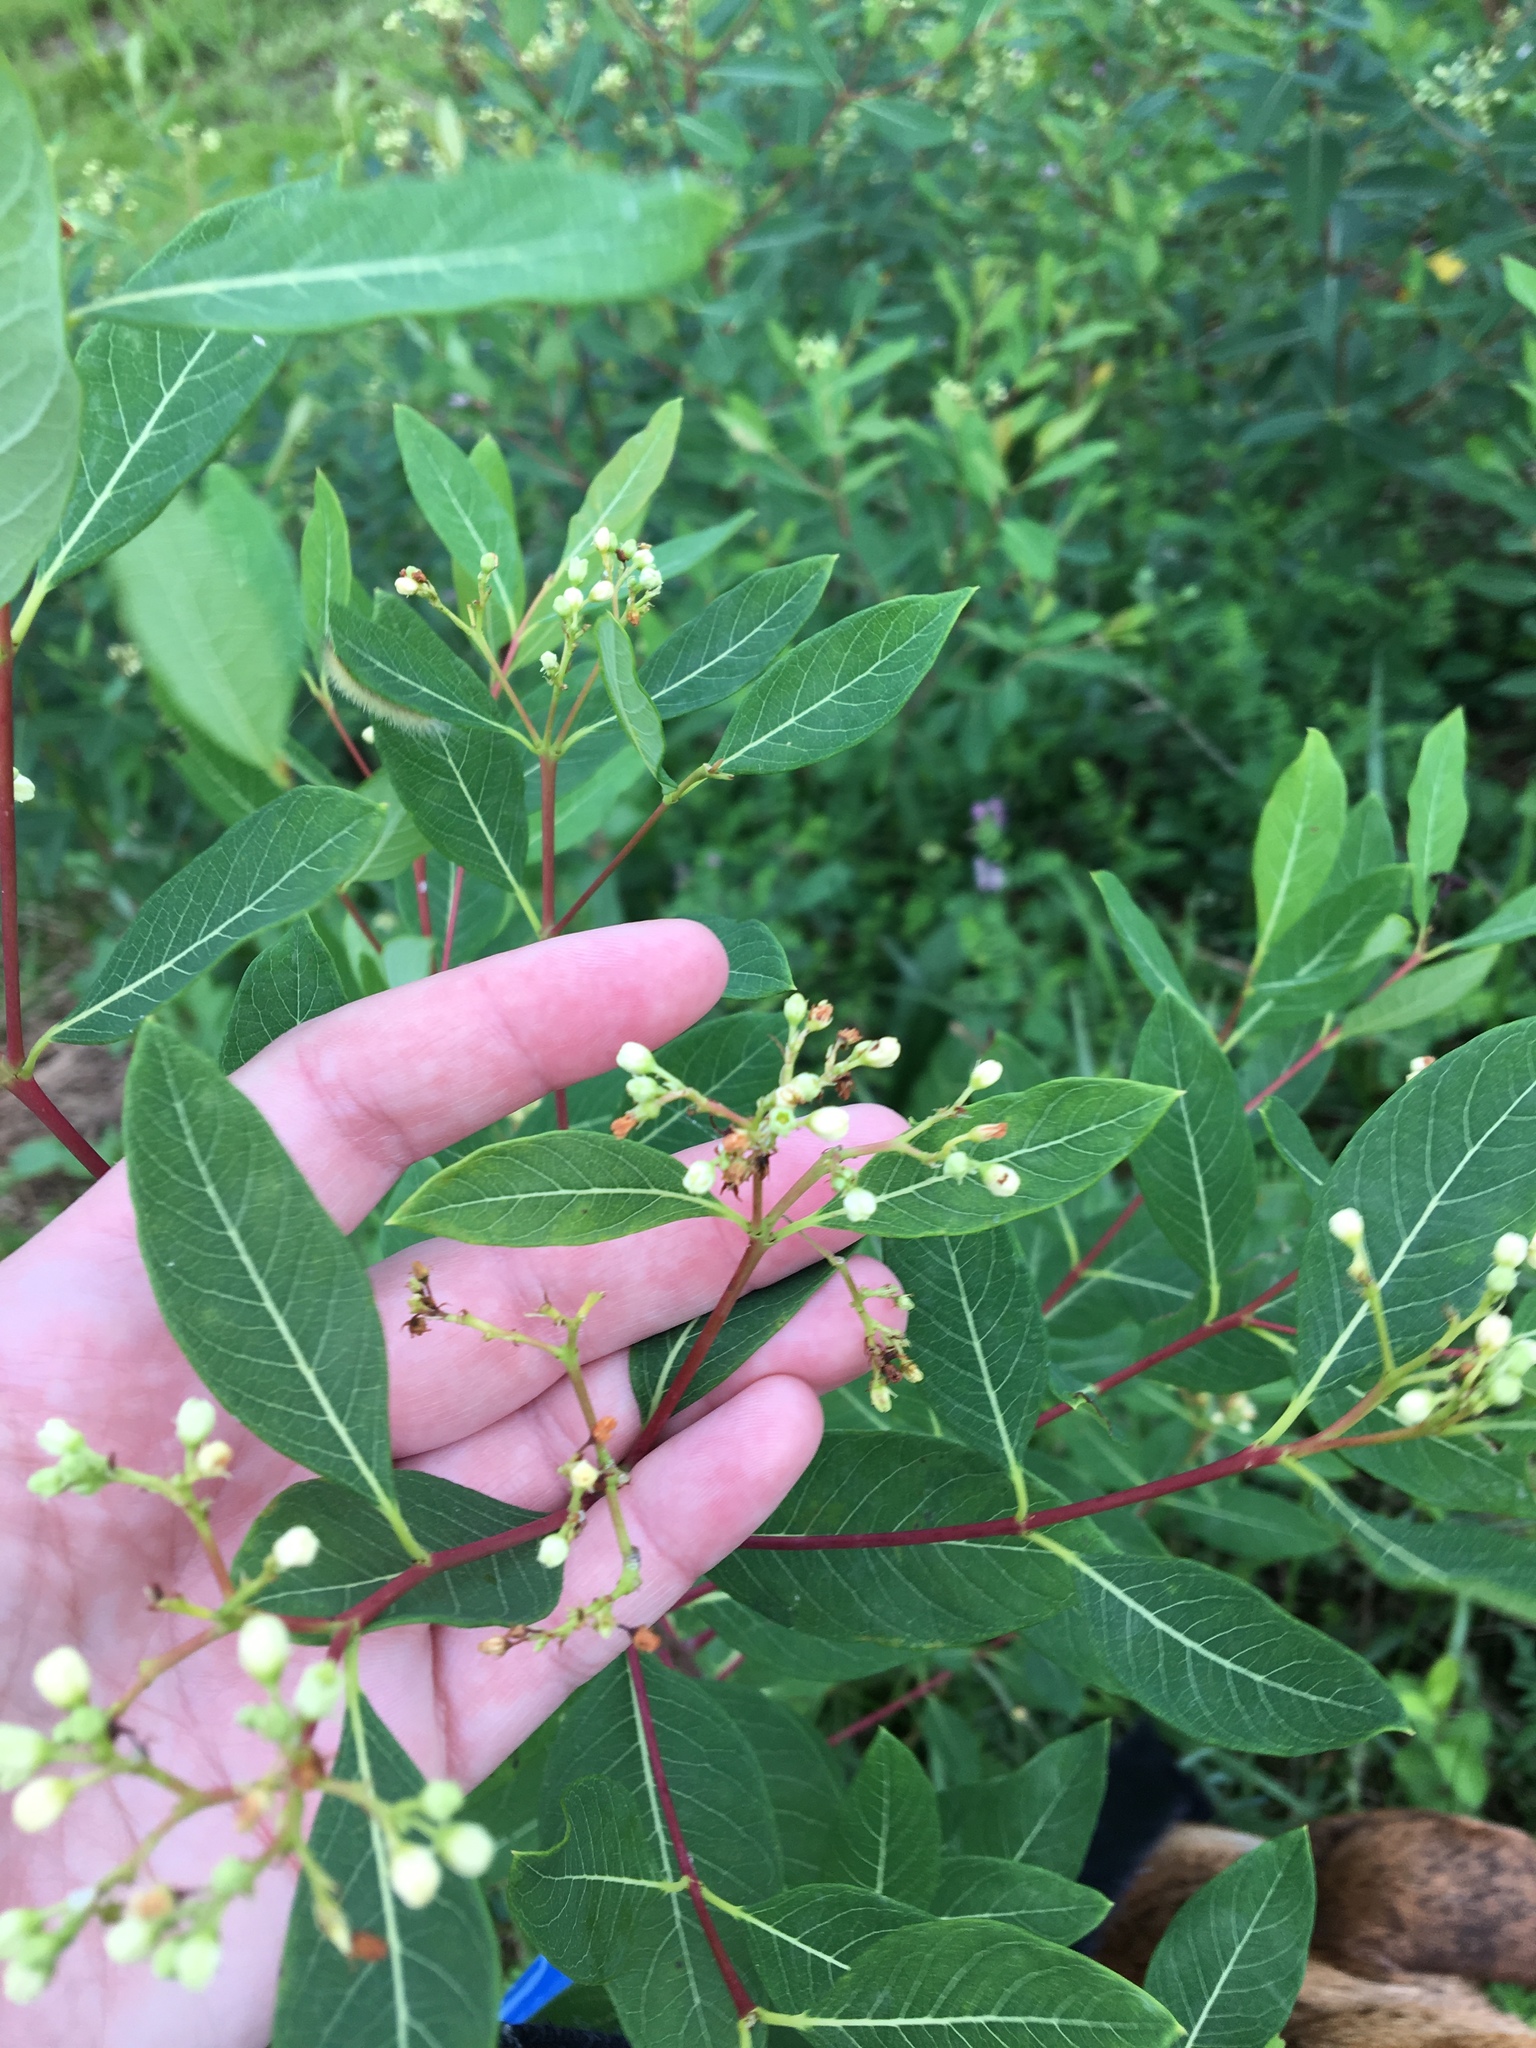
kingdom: Plantae
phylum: Tracheophyta
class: Magnoliopsida
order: Gentianales
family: Apocynaceae
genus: Apocynum
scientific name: Apocynum cannabinum
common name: Hemp dogbane
